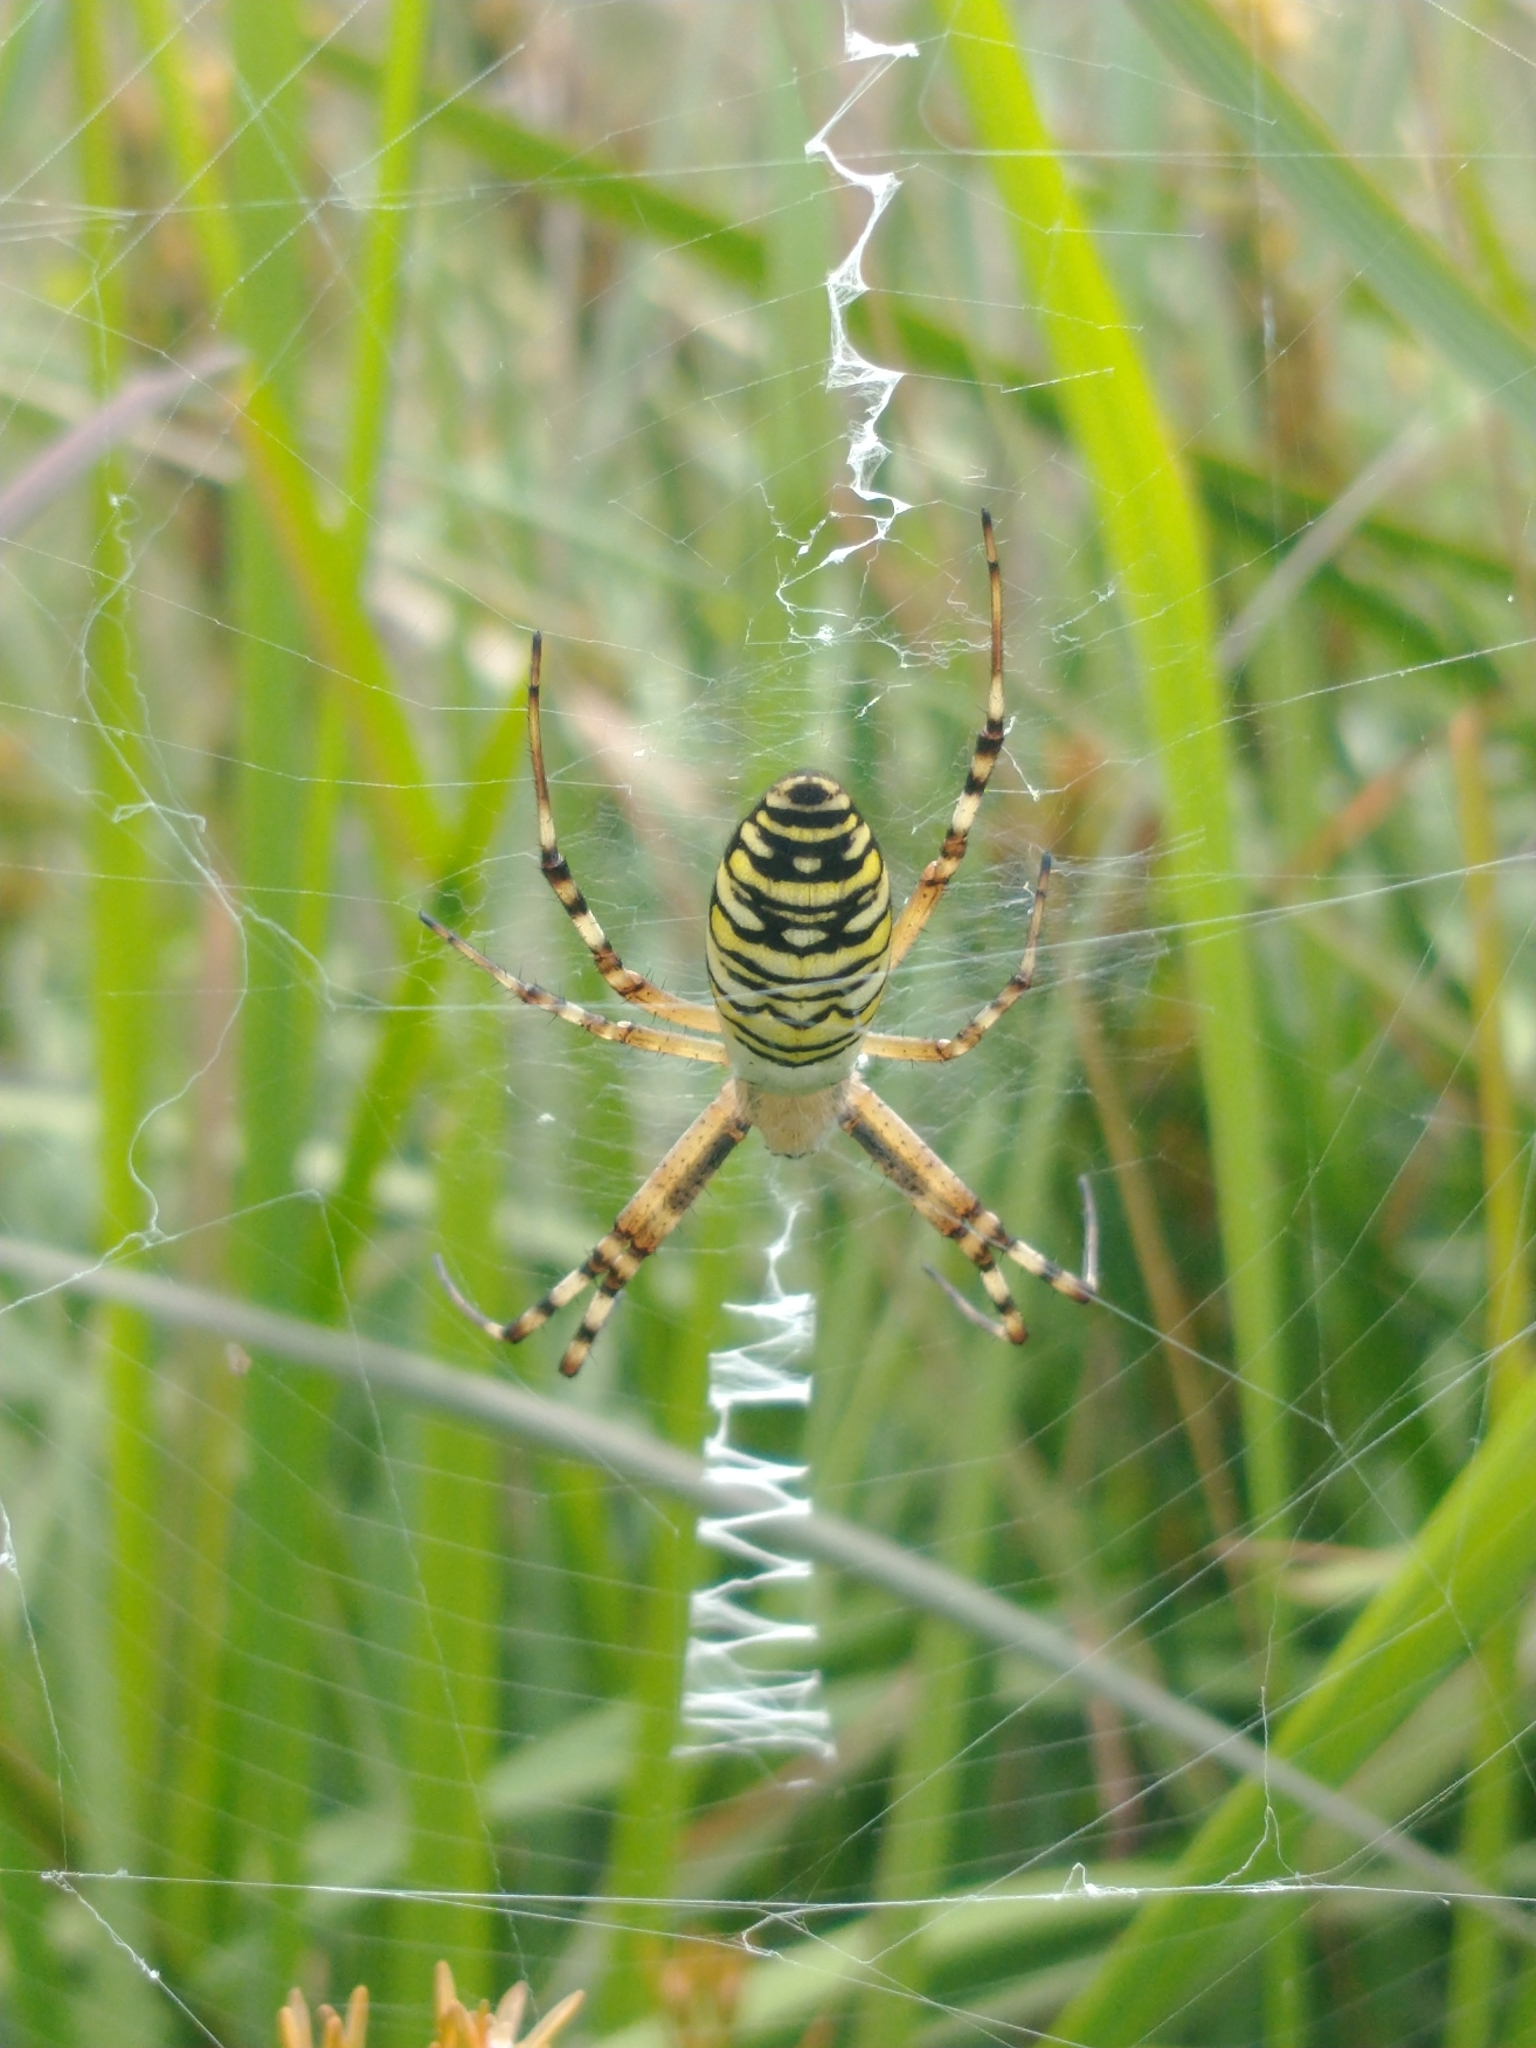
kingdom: Animalia
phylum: Arthropoda
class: Arachnida
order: Araneae
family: Araneidae
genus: Argiope
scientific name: Argiope bruennichi
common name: Wasp spider
